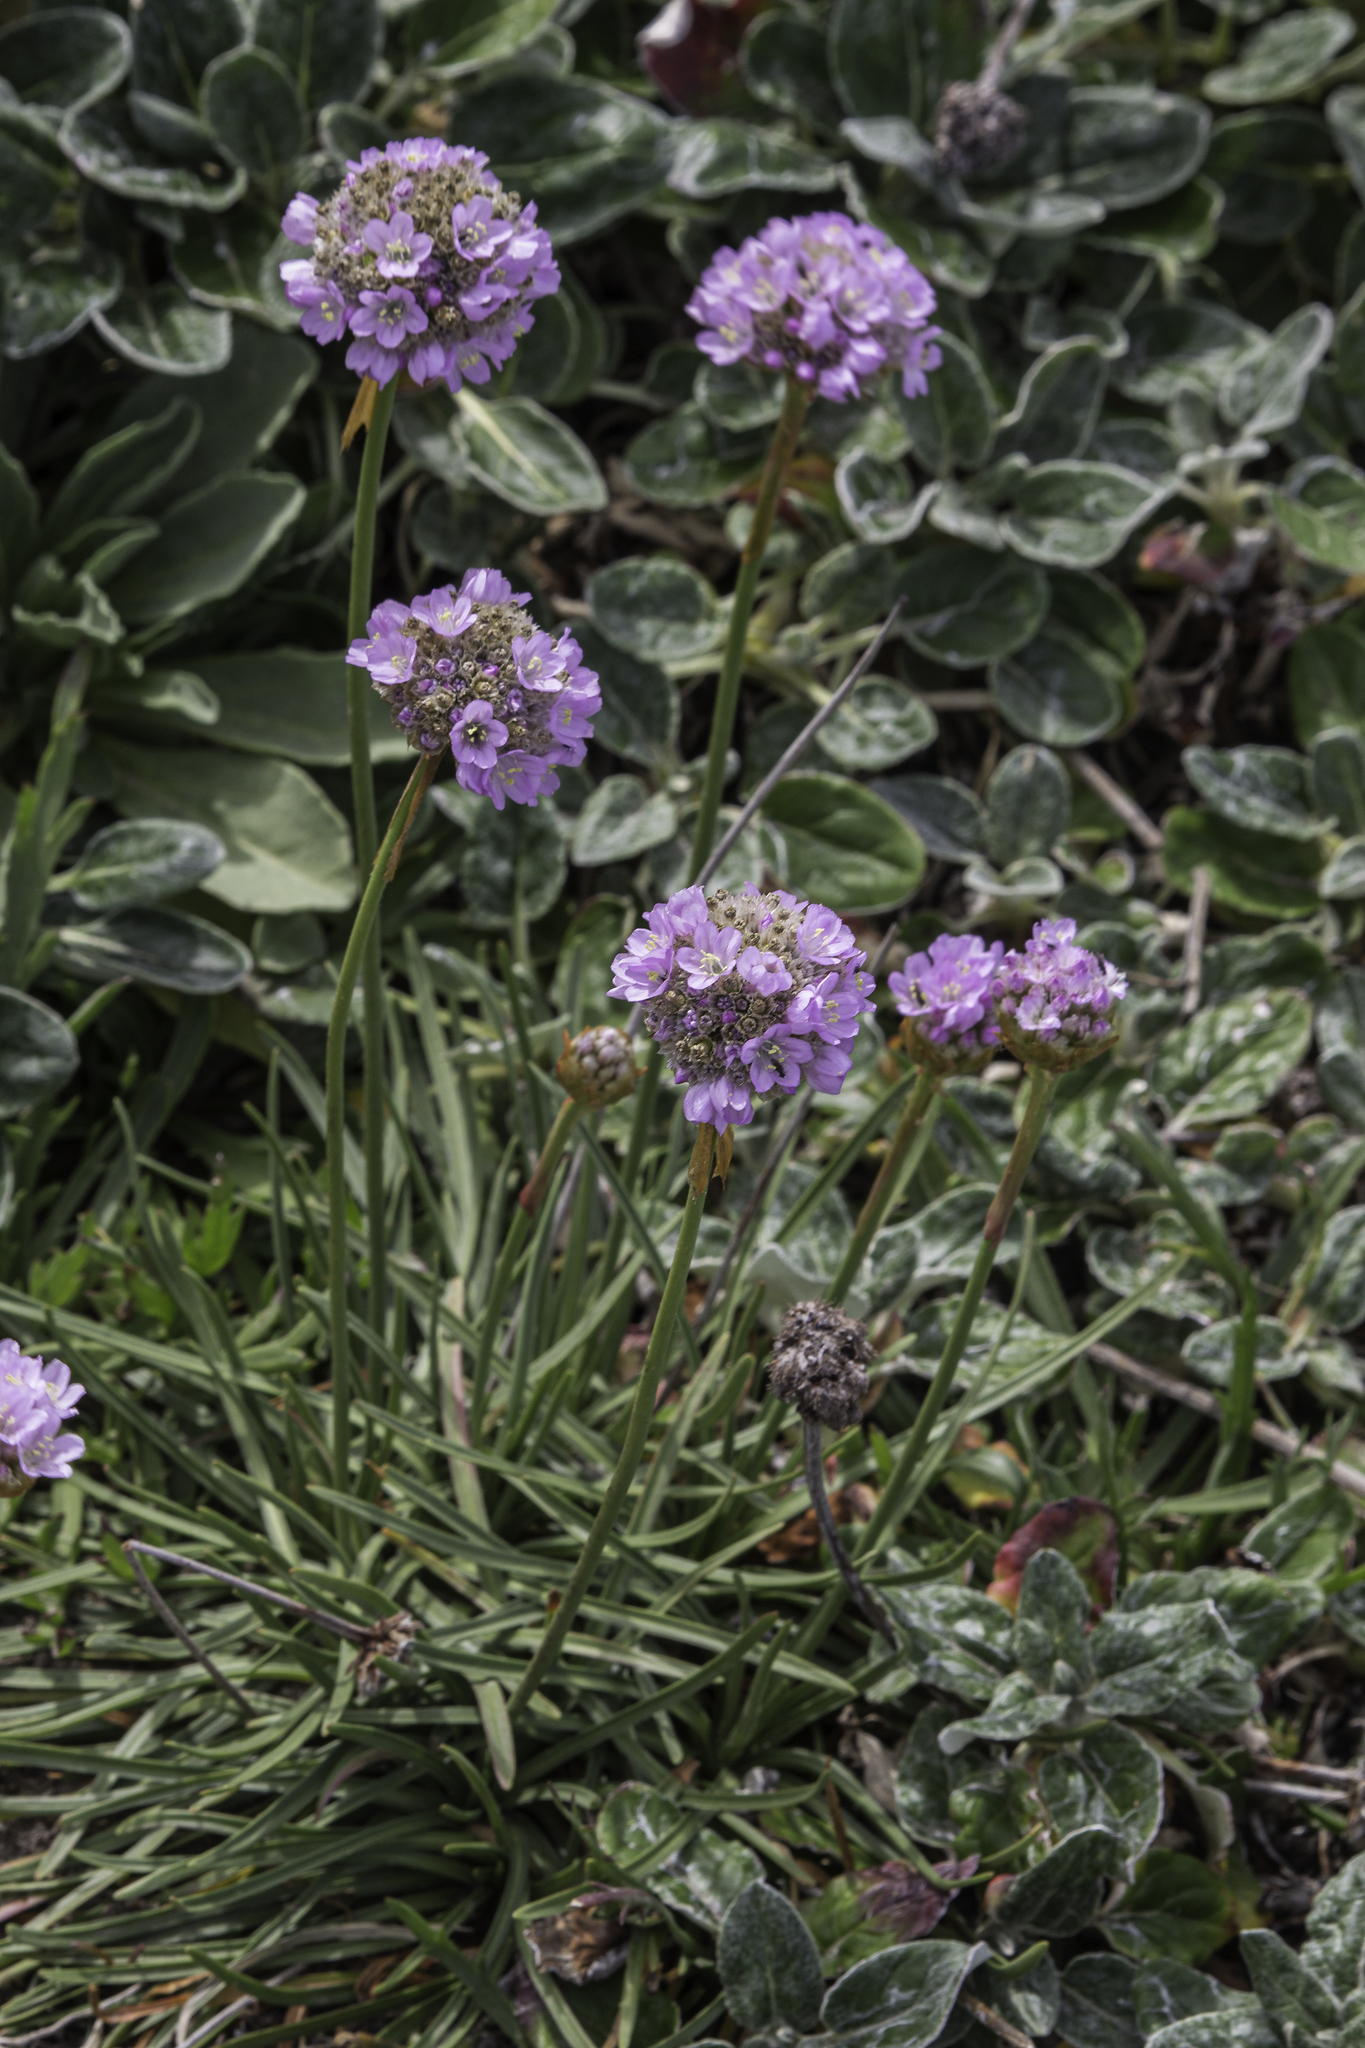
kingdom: Plantae
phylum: Tracheophyta
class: Magnoliopsida
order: Caryophyllales
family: Plumbaginaceae
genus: Armeria
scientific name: Armeria maritima
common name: Thrift
